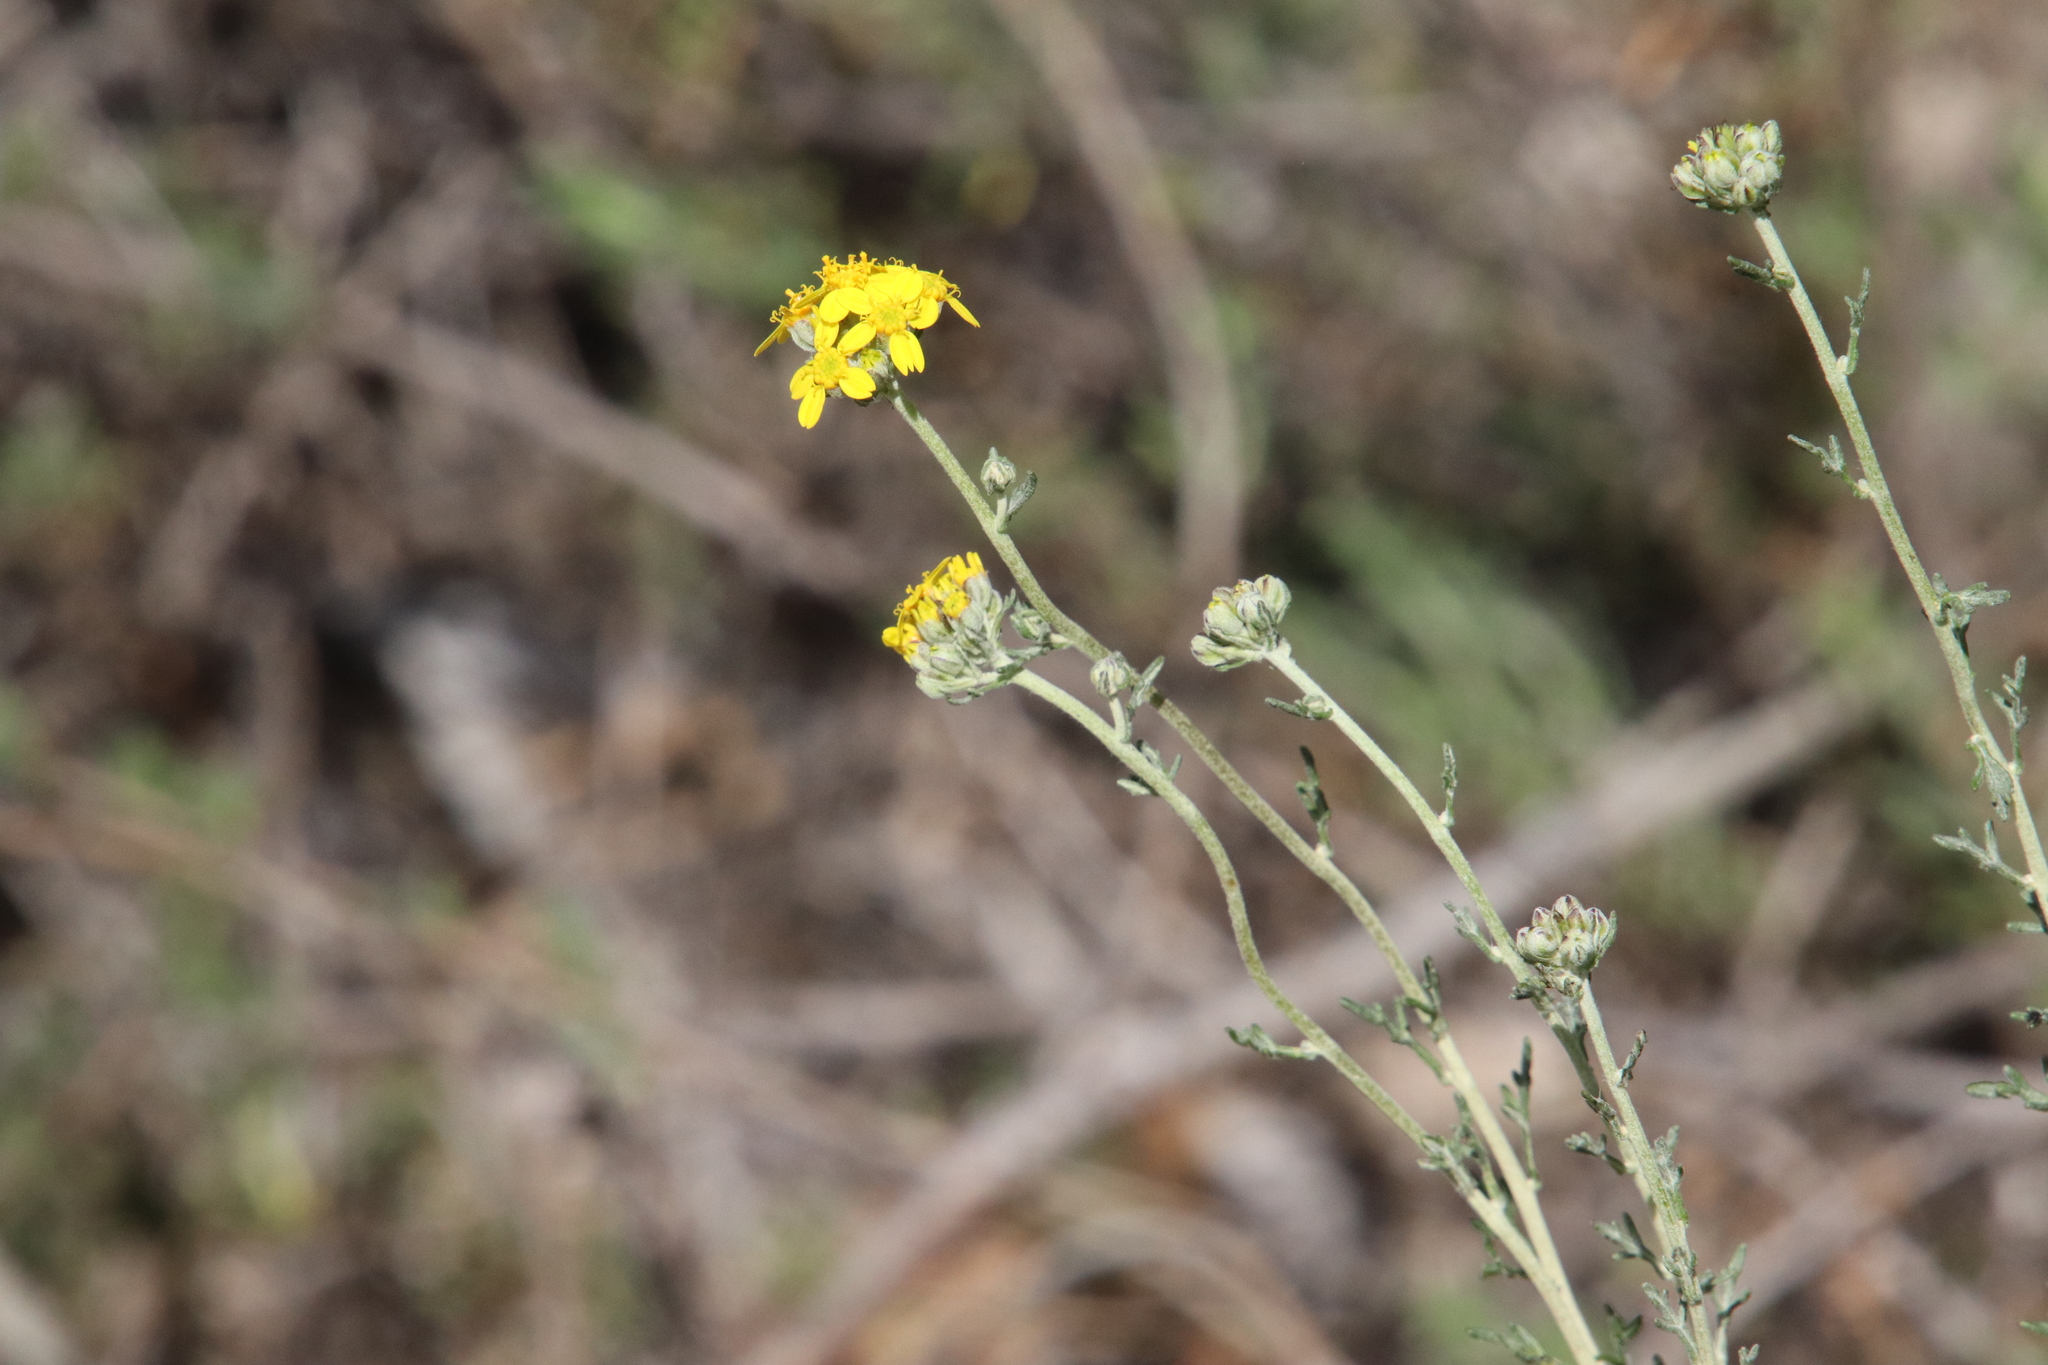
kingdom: Plantae
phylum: Tracheophyta
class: Magnoliopsida
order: Asterales
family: Asteraceae
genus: Eriophyllum
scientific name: Eriophyllum confertiflorum
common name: Golden-yarrow
